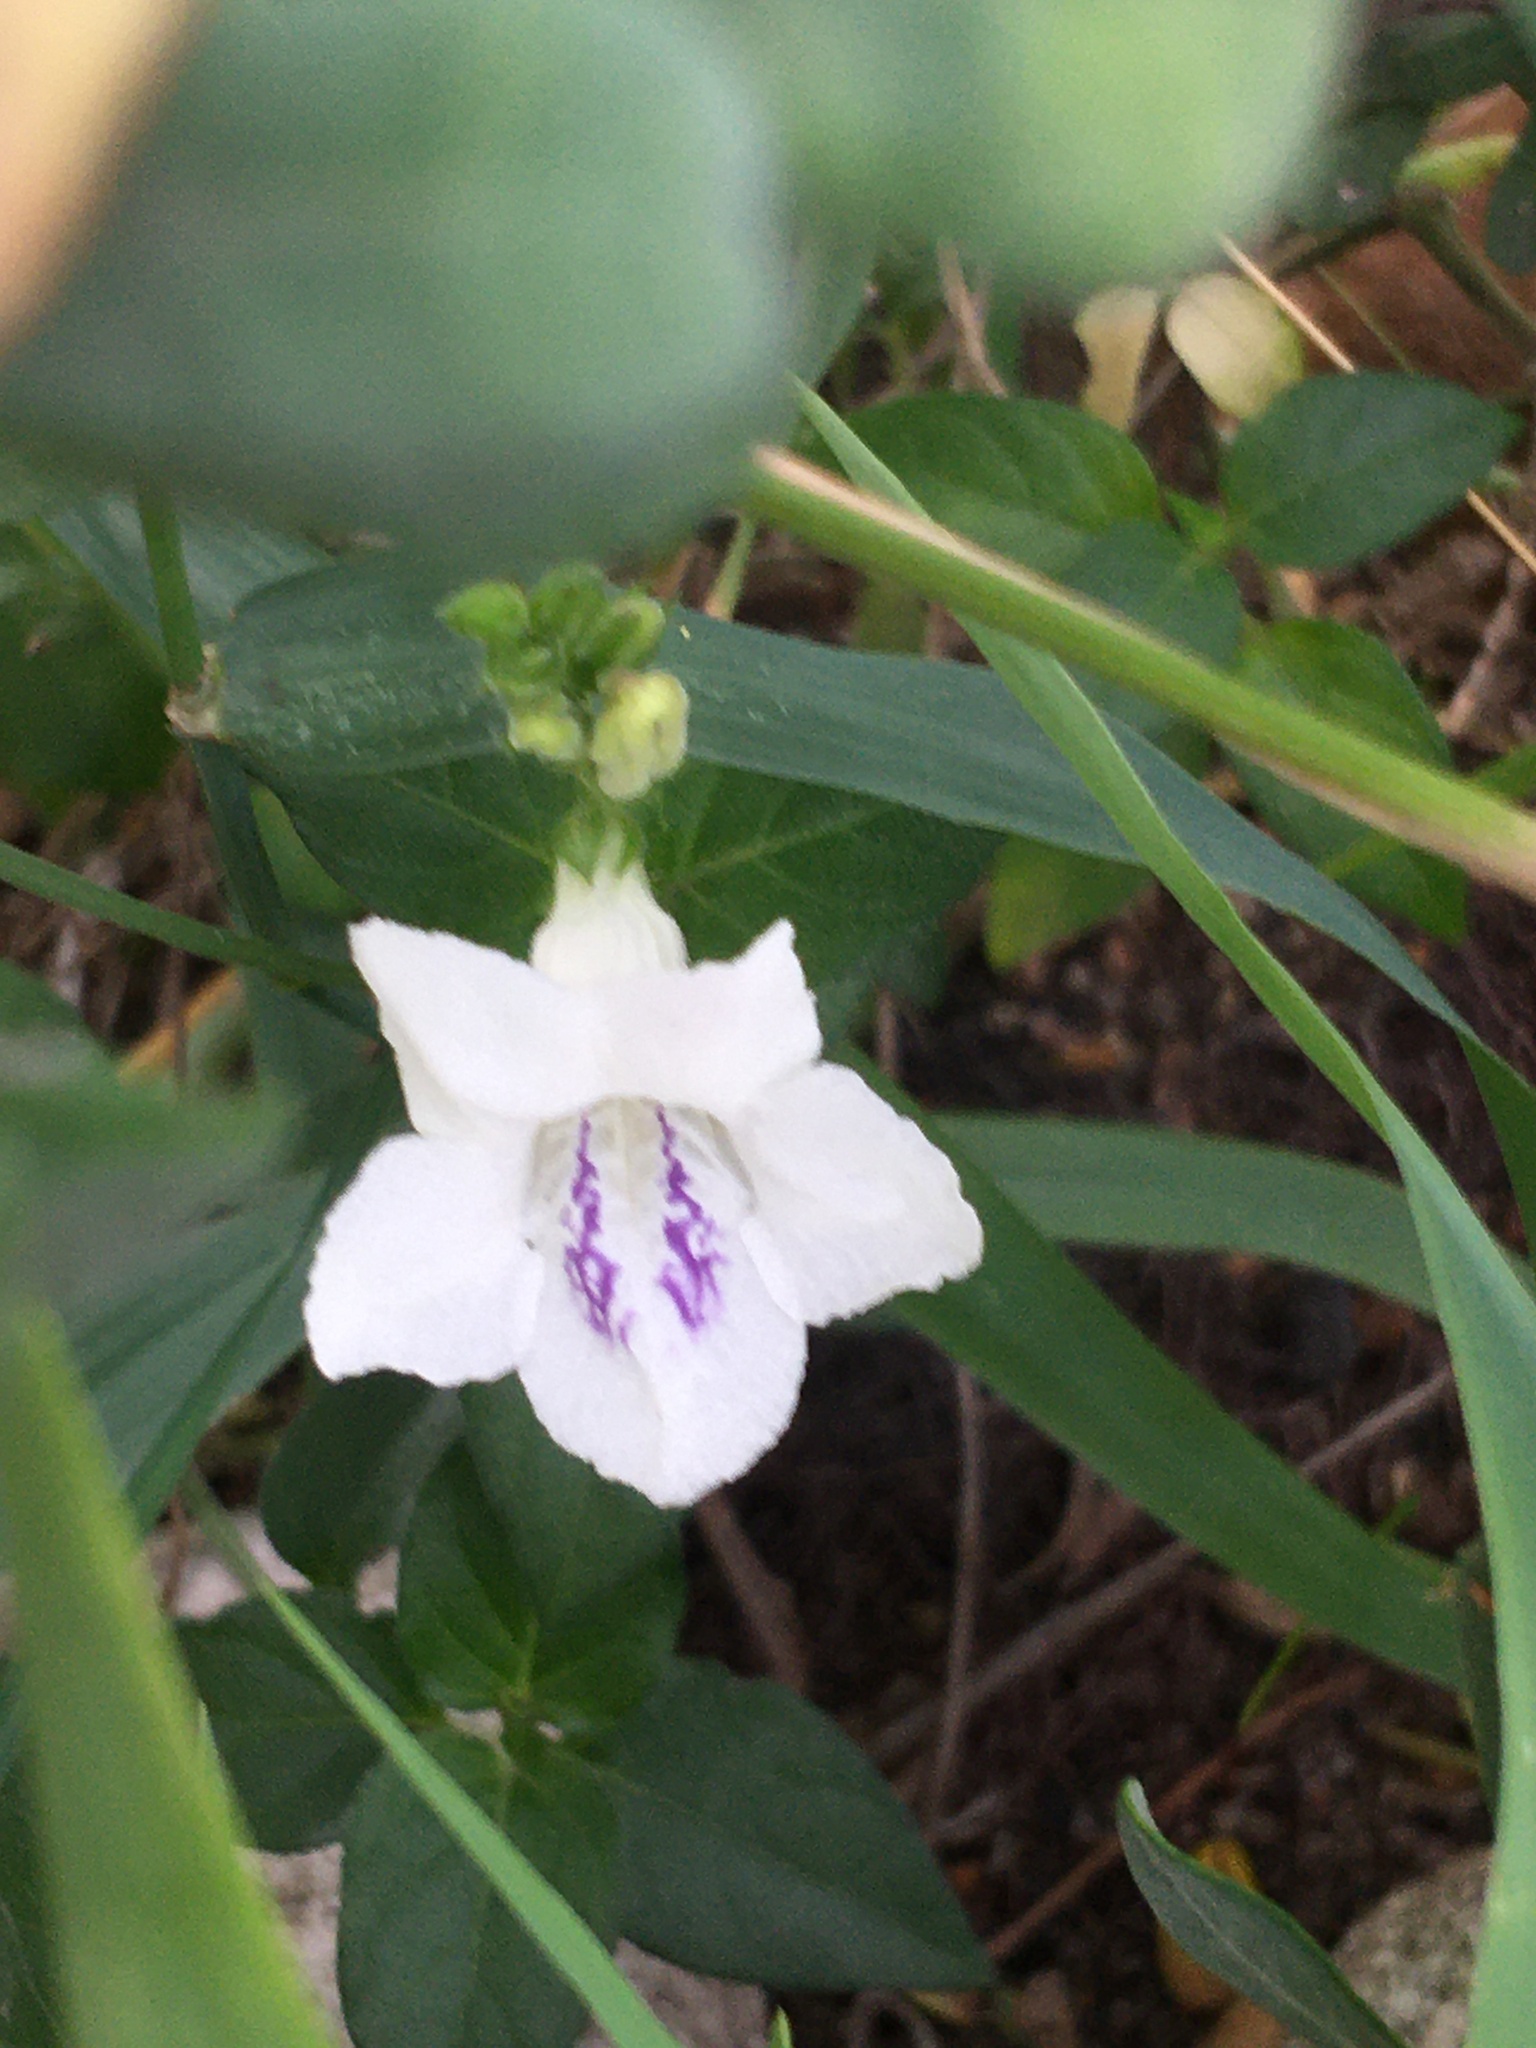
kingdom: Plantae
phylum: Tracheophyta
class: Magnoliopsida
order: Lamiales
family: Acanthaceae
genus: Asystasia
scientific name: Asystasia intrusa
